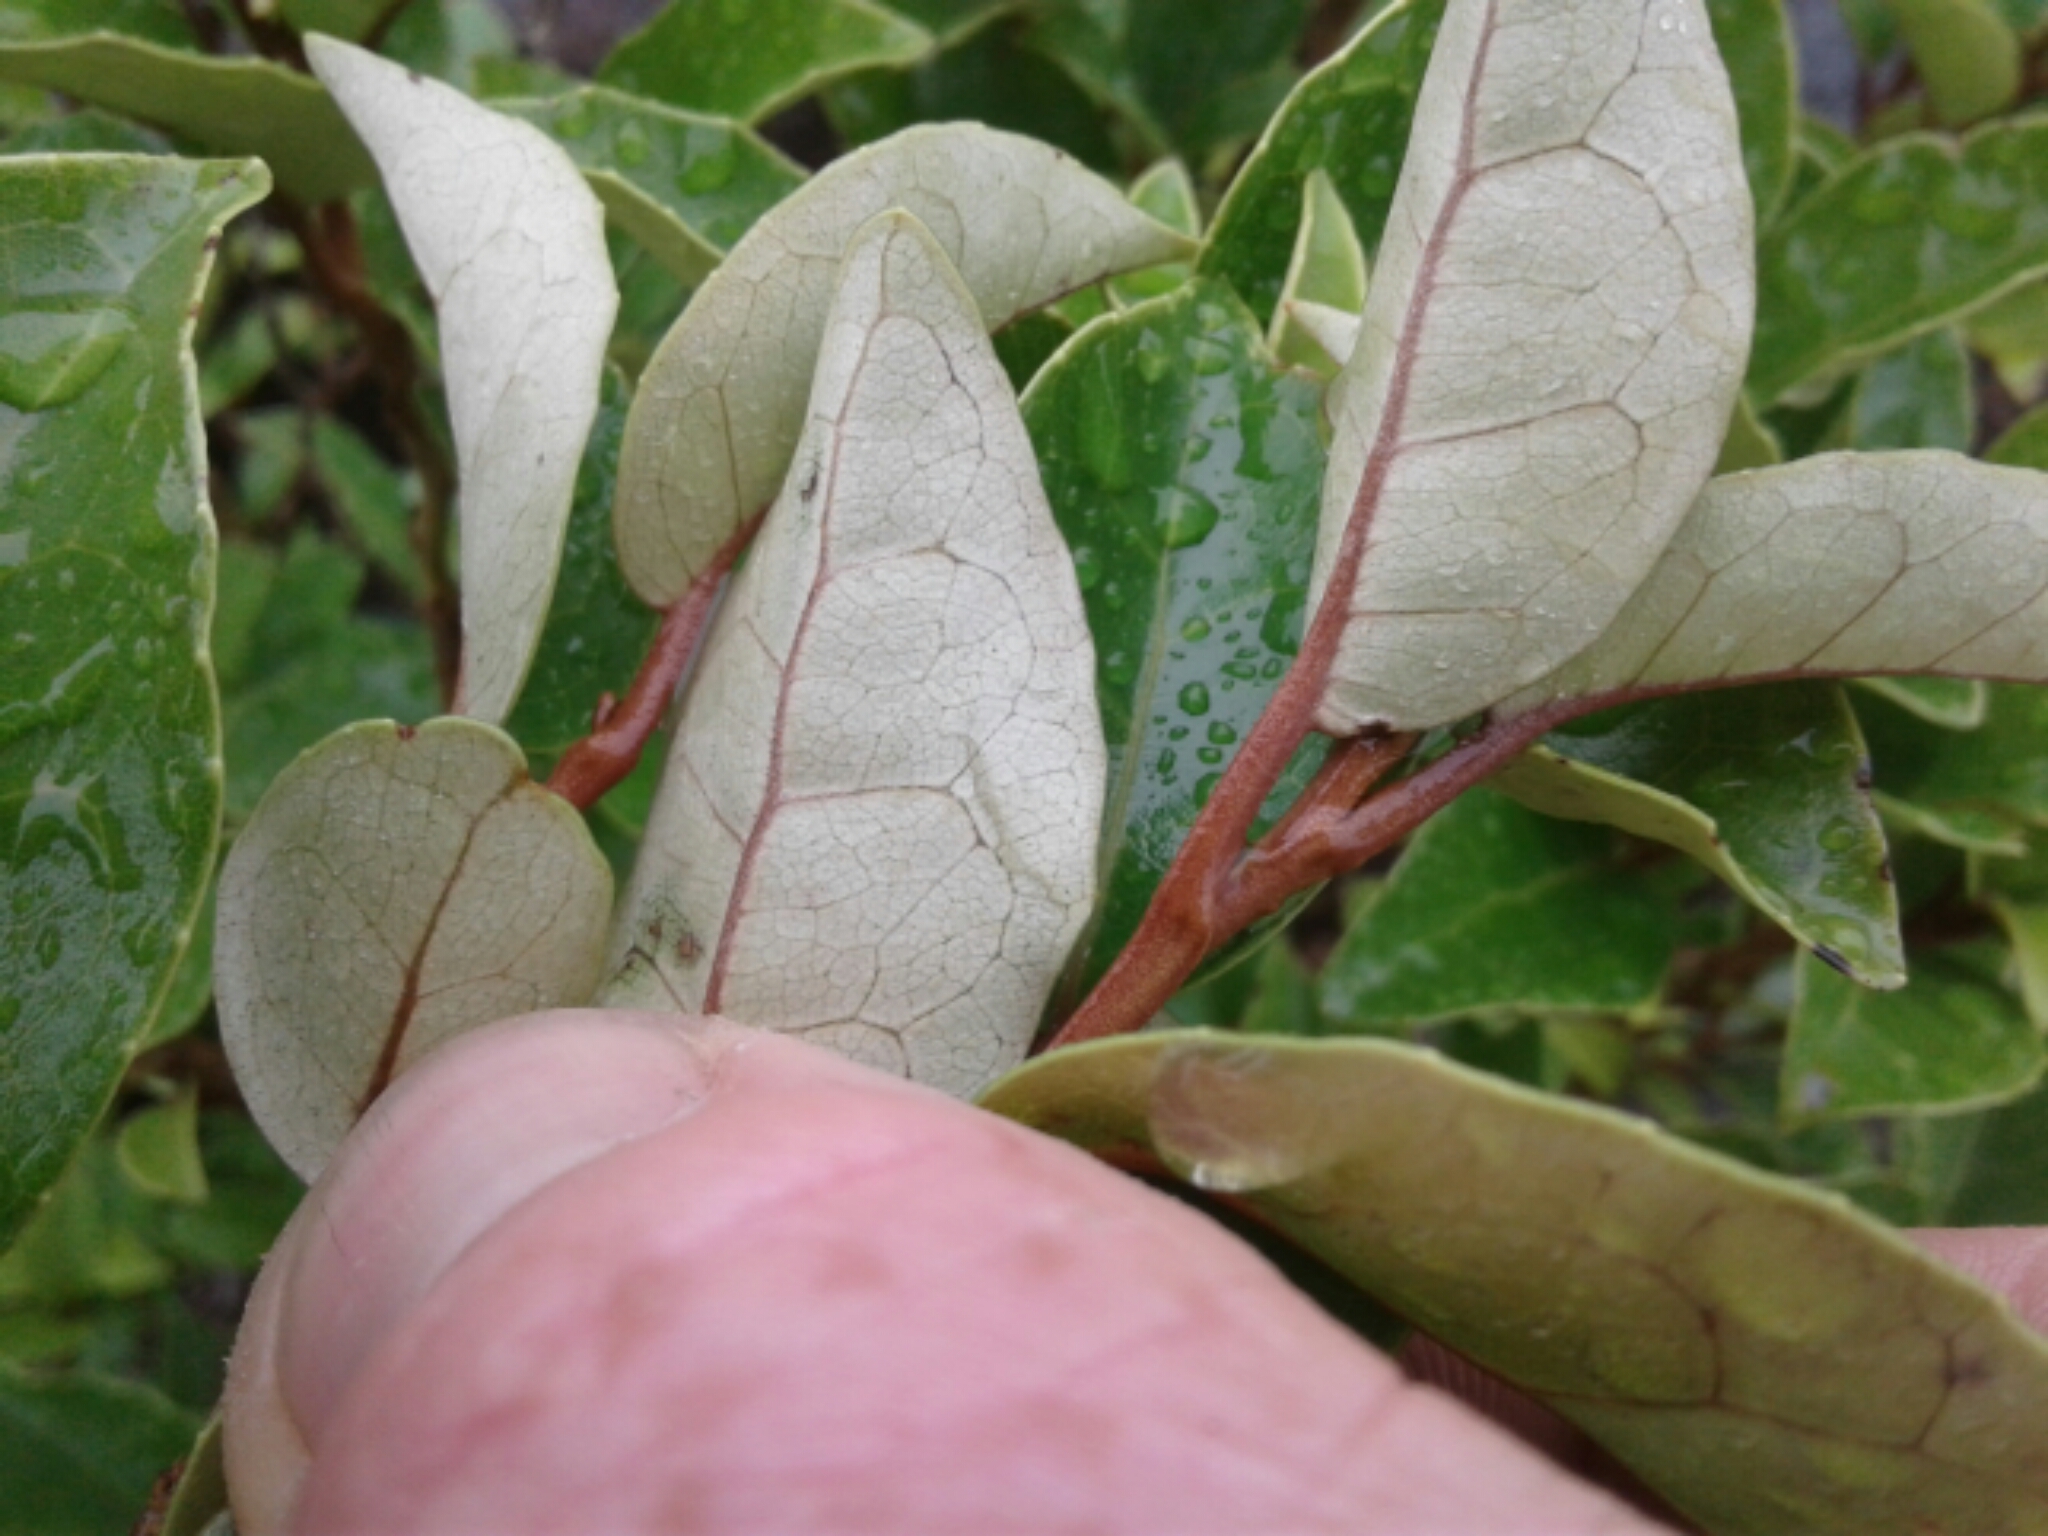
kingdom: Plantae
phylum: Tracheophyta
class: Magnoliopsida
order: Asterales
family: Asteraceae
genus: Olearia
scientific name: Olearia arborescens
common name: Glossy tree daisy
